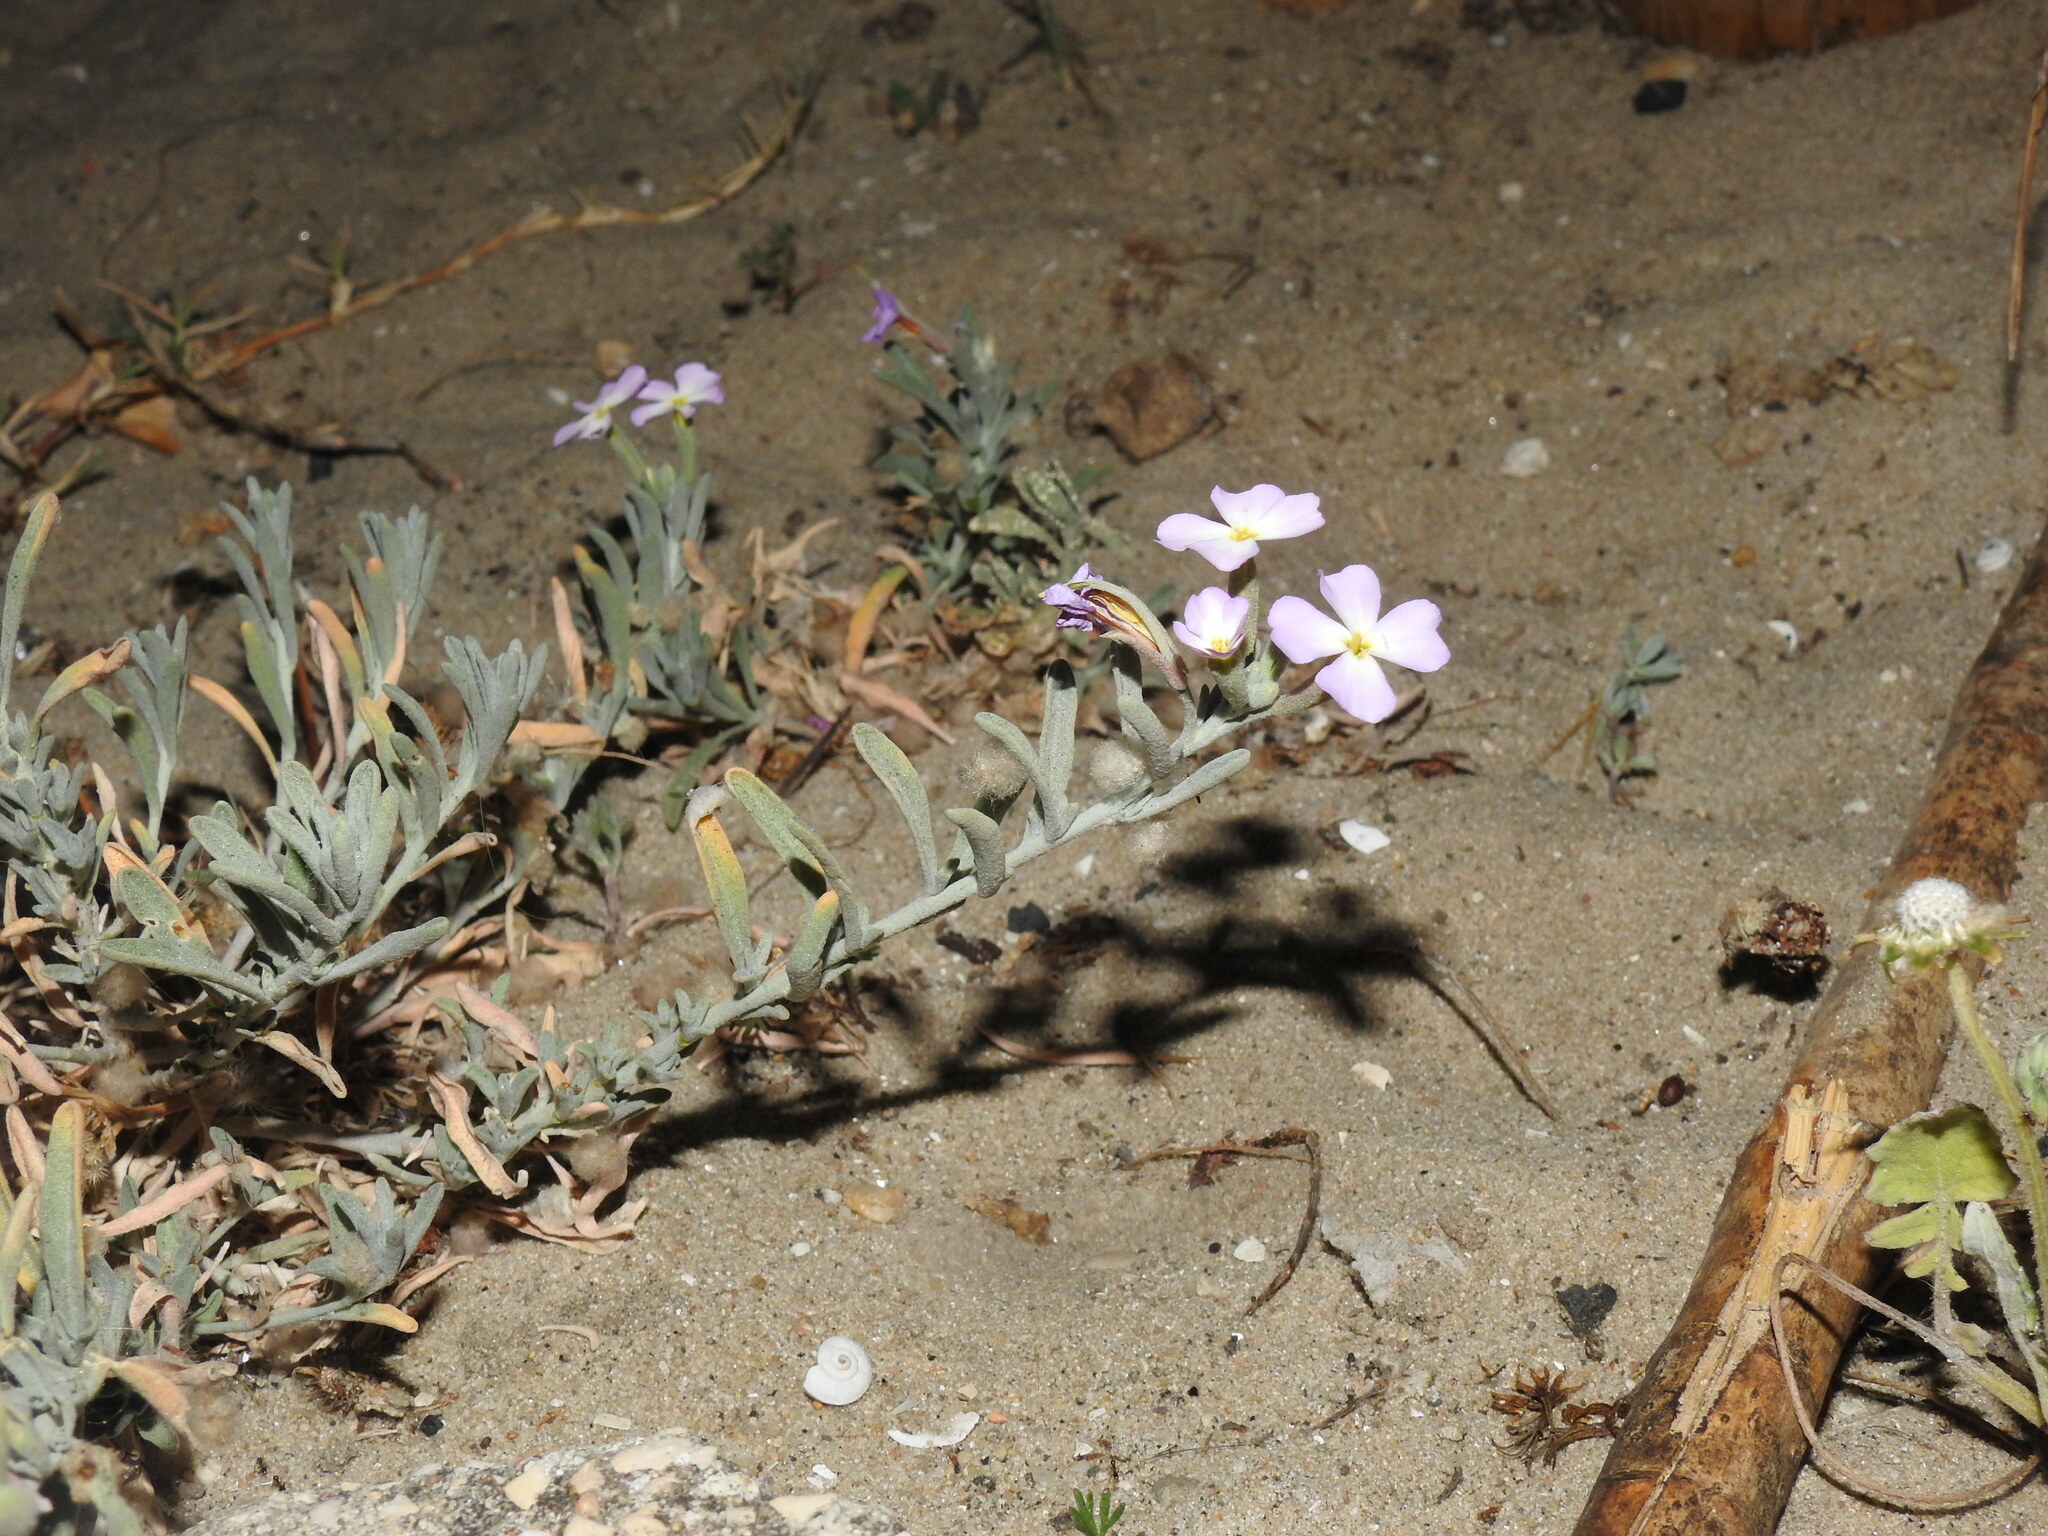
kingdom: Plantae
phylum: Tracheophyta
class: Magnoliopsida
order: Brassicales
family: Brassicaceae
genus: Marcuskochia
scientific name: Marcuskochia littorea
